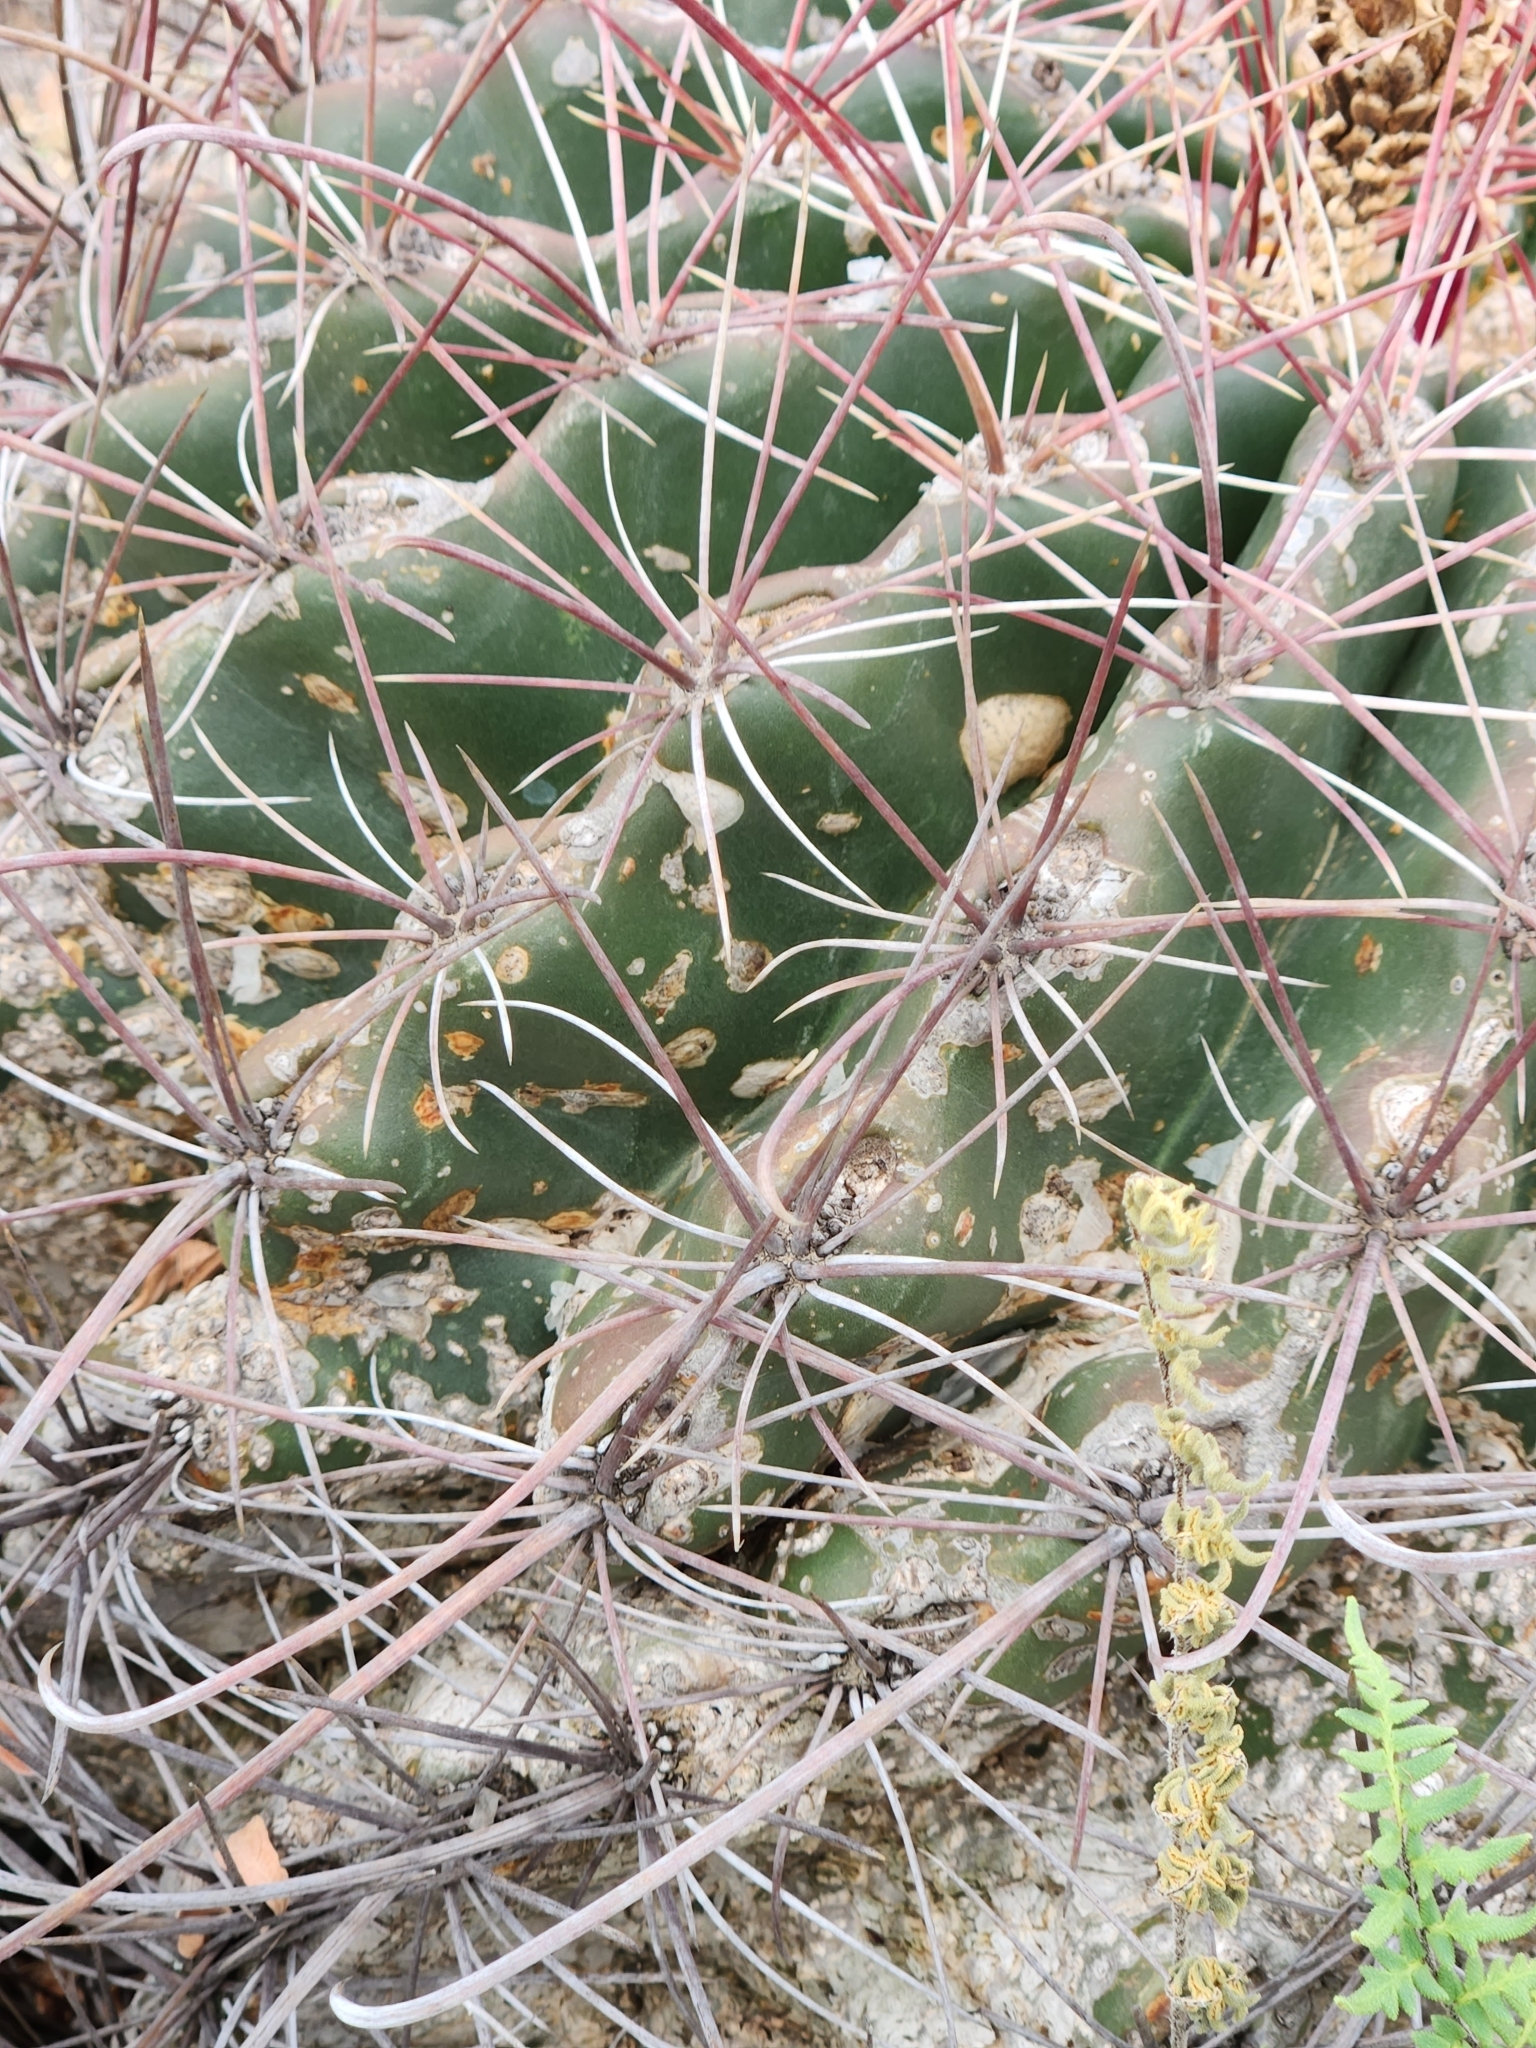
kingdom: Plantae
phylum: Tracheophyta
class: Magnoliopsida
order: Caryophyllales
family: Cactaceae
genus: Bisnaga
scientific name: Bisnaga hamatacantha
